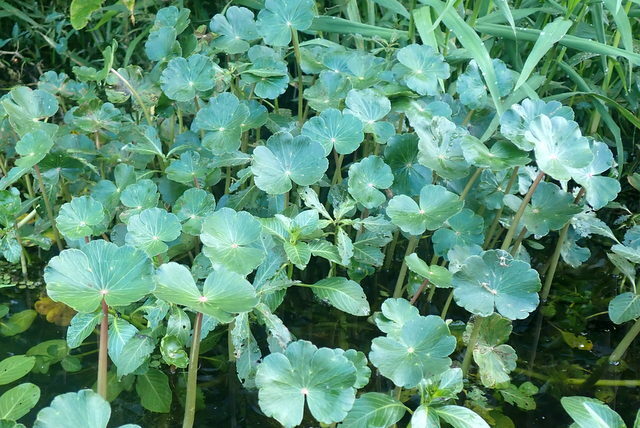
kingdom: Plantae
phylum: Tracheophyta
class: Magnoliopsida
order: Apiales
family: Araliaceae
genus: Hydrocotyle
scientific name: Hydrocotyle ranunculoides
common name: Floating pennywort
